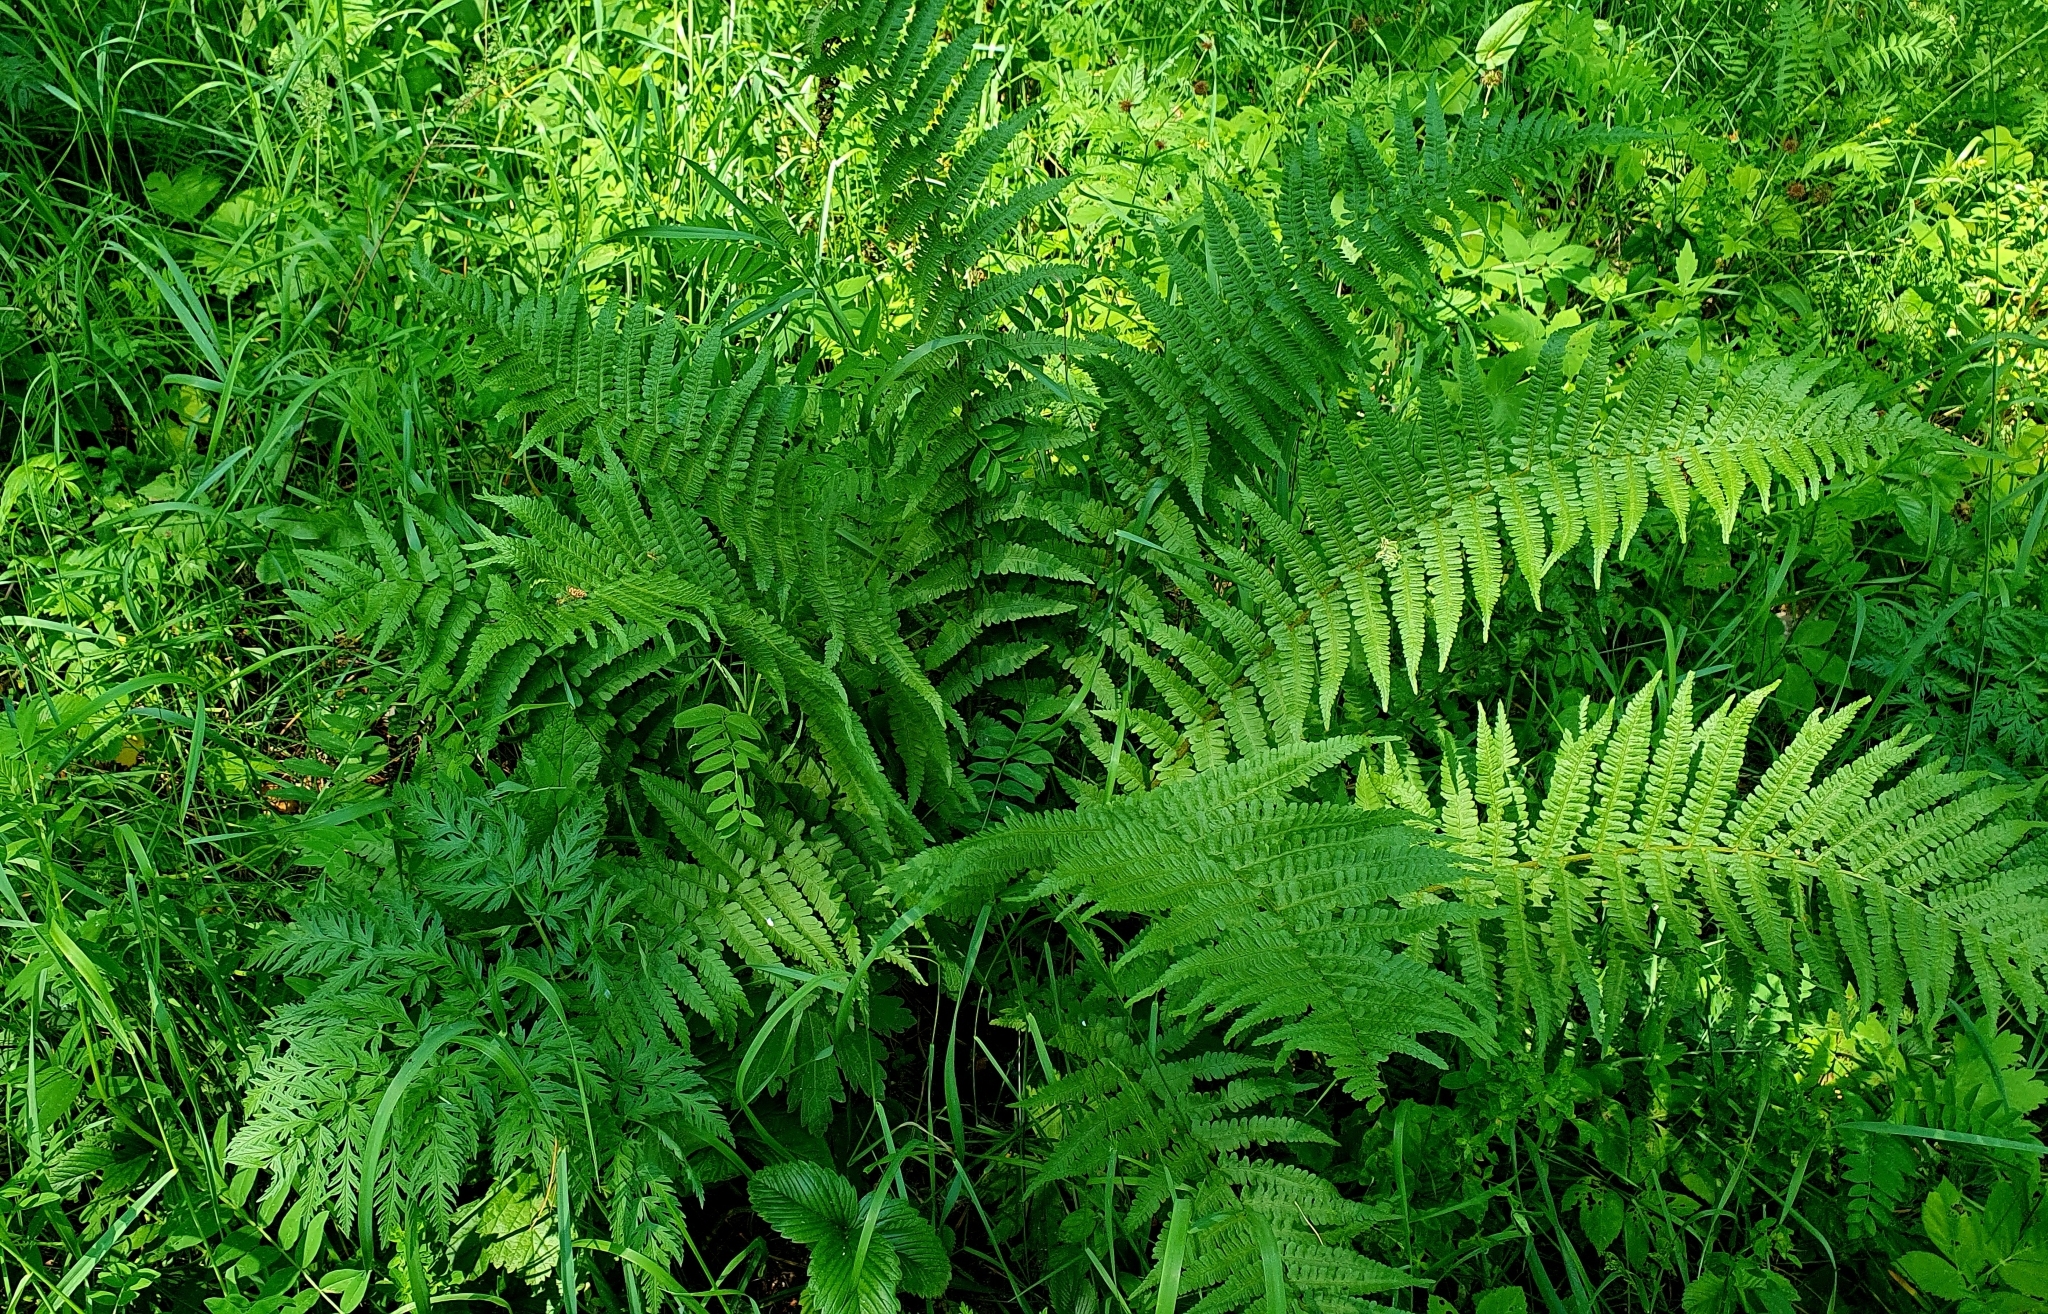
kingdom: Plantae
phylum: Tracheophyta
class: Polypodiopsida
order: Polypodiales
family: Dryopteridaceae
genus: Dryopteris
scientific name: Dryopteris filix-mas
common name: Male fern
